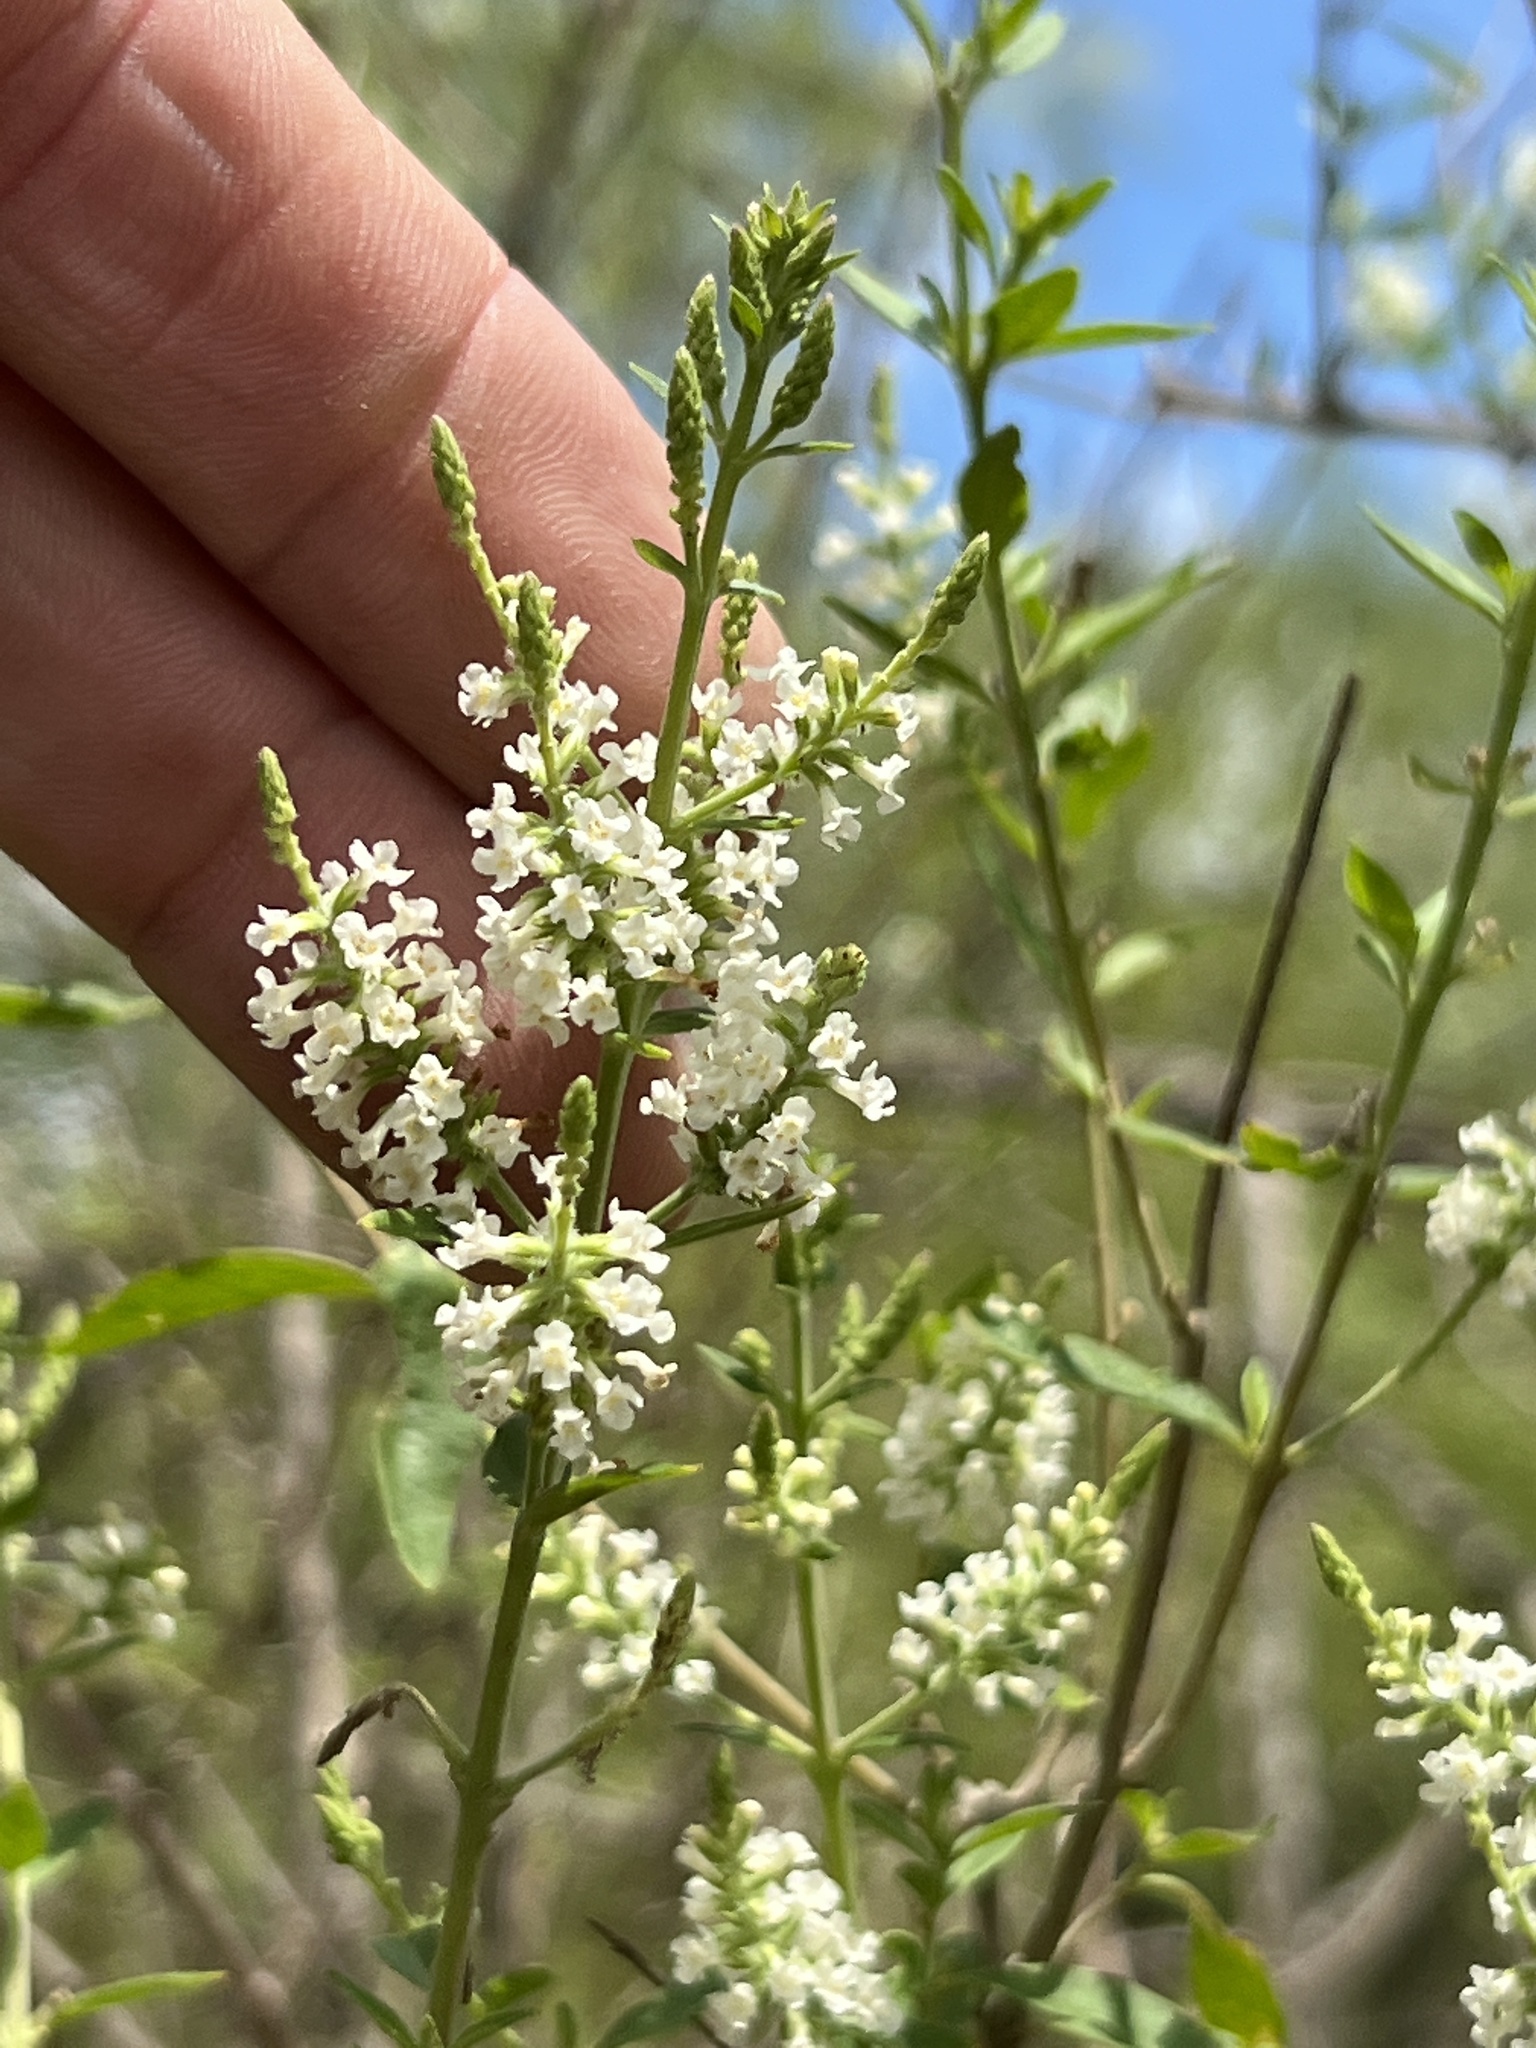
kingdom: Plantae
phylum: Tracheophyta
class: Magnoliopsida
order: Lamiales
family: Verbenaceae
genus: Aloysia
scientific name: Aloysia gratissima
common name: Common bee-brush
